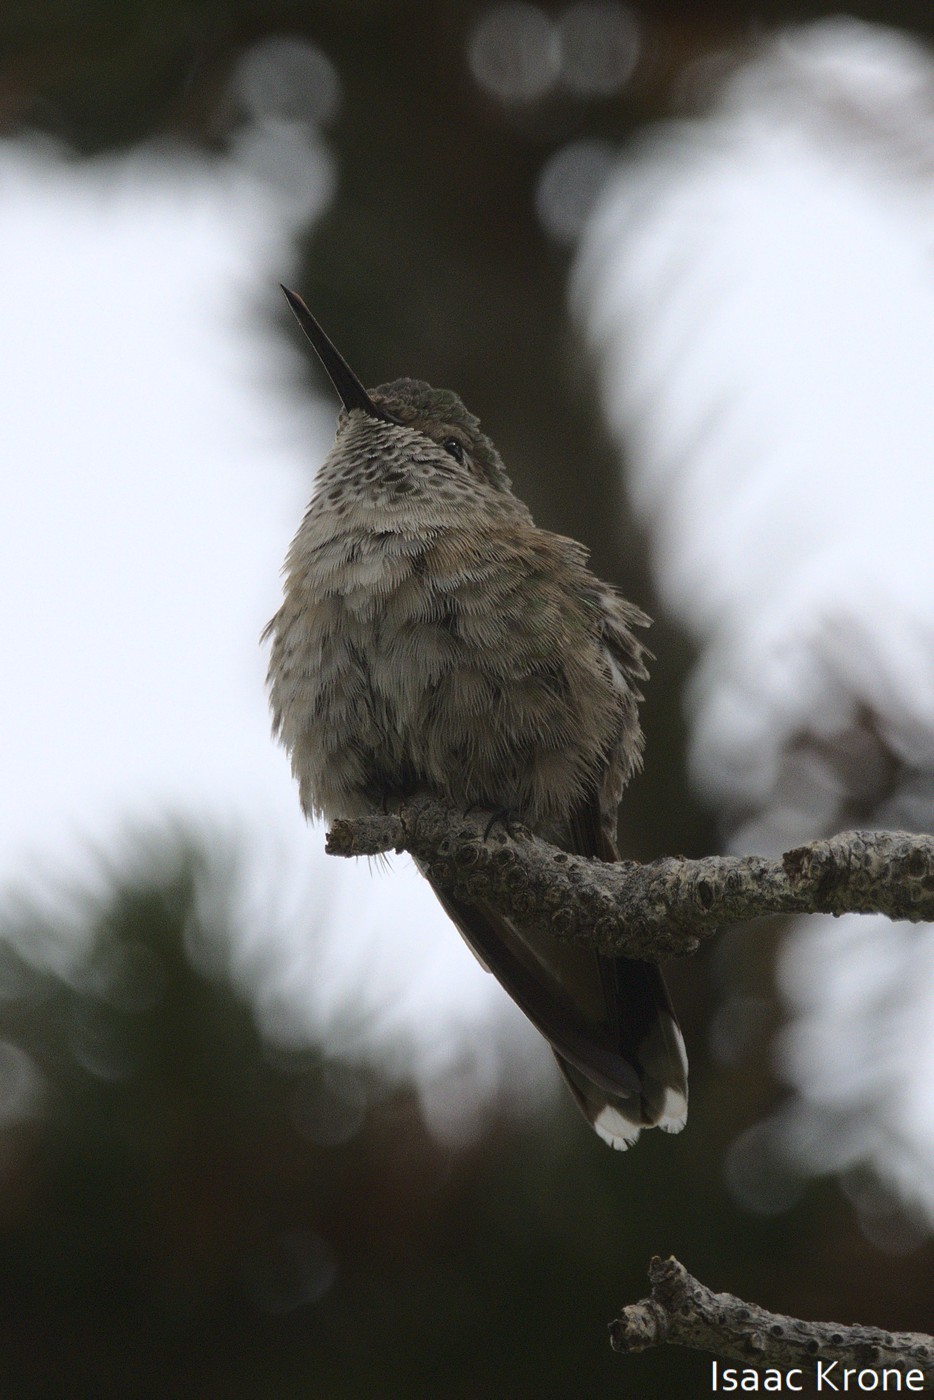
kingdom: Animalia
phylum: Chordata
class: Aves
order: Apodiformes
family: Trochilidae
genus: Selasphorus
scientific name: Selasphorus platycercus
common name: Broad-tailed hummingbird
